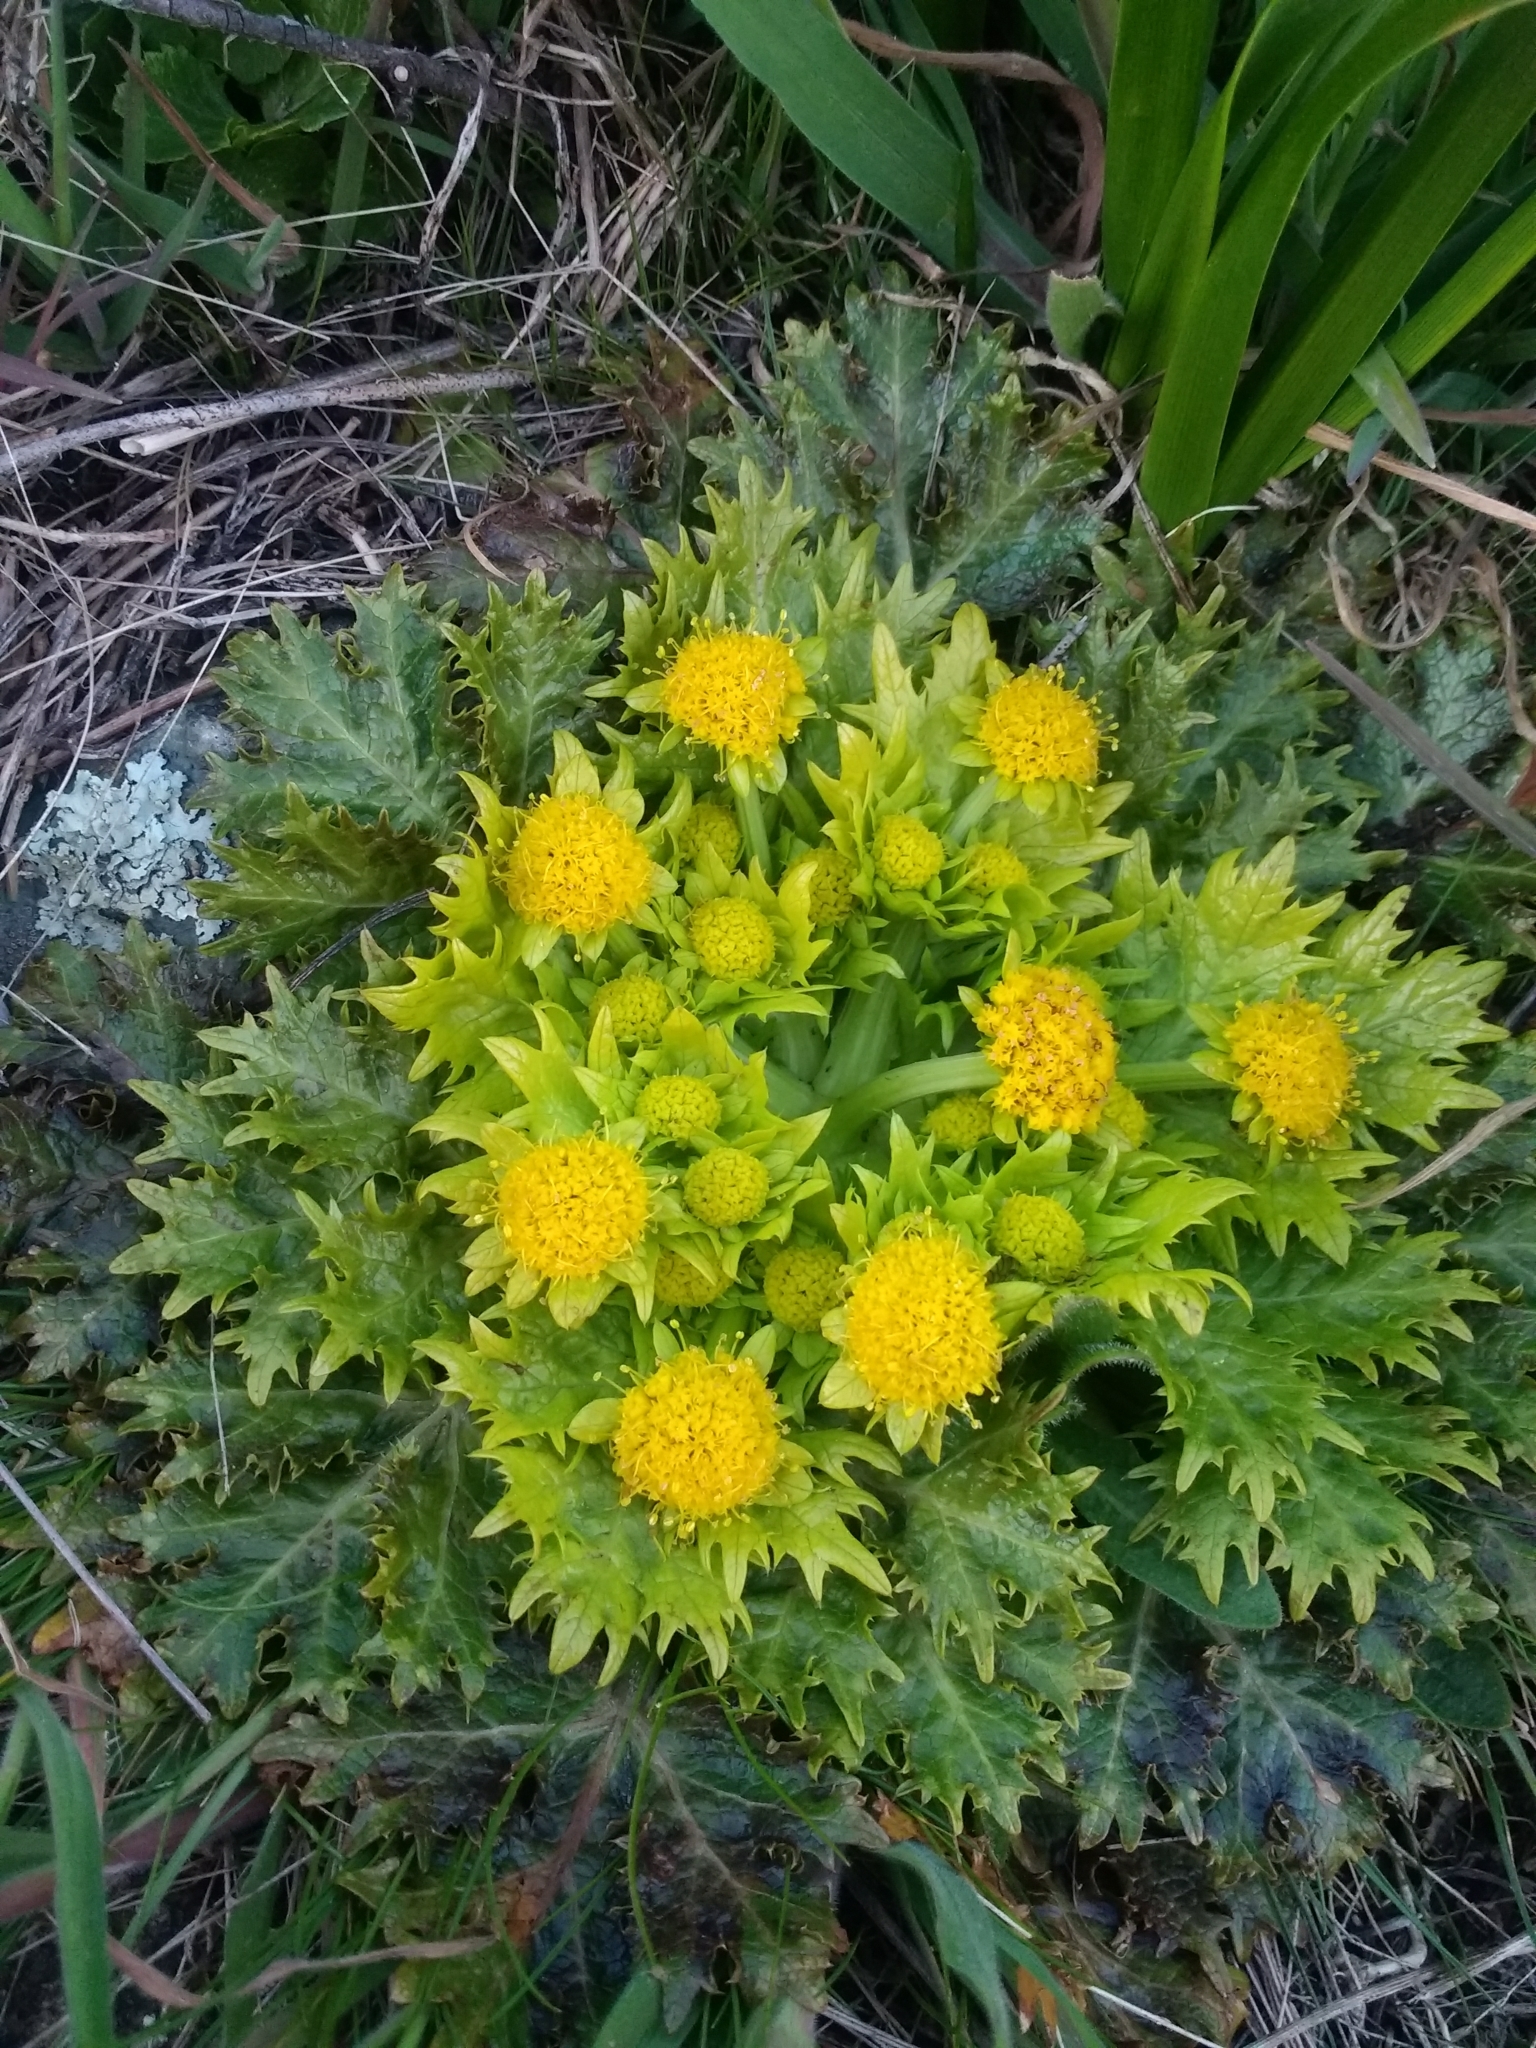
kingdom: Plantae
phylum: Tracheophyta
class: Magnoliopsida
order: Apiales
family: Apiaceae
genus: Sanicula
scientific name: Sanicula arctopoides
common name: Footsteps-of-spring
